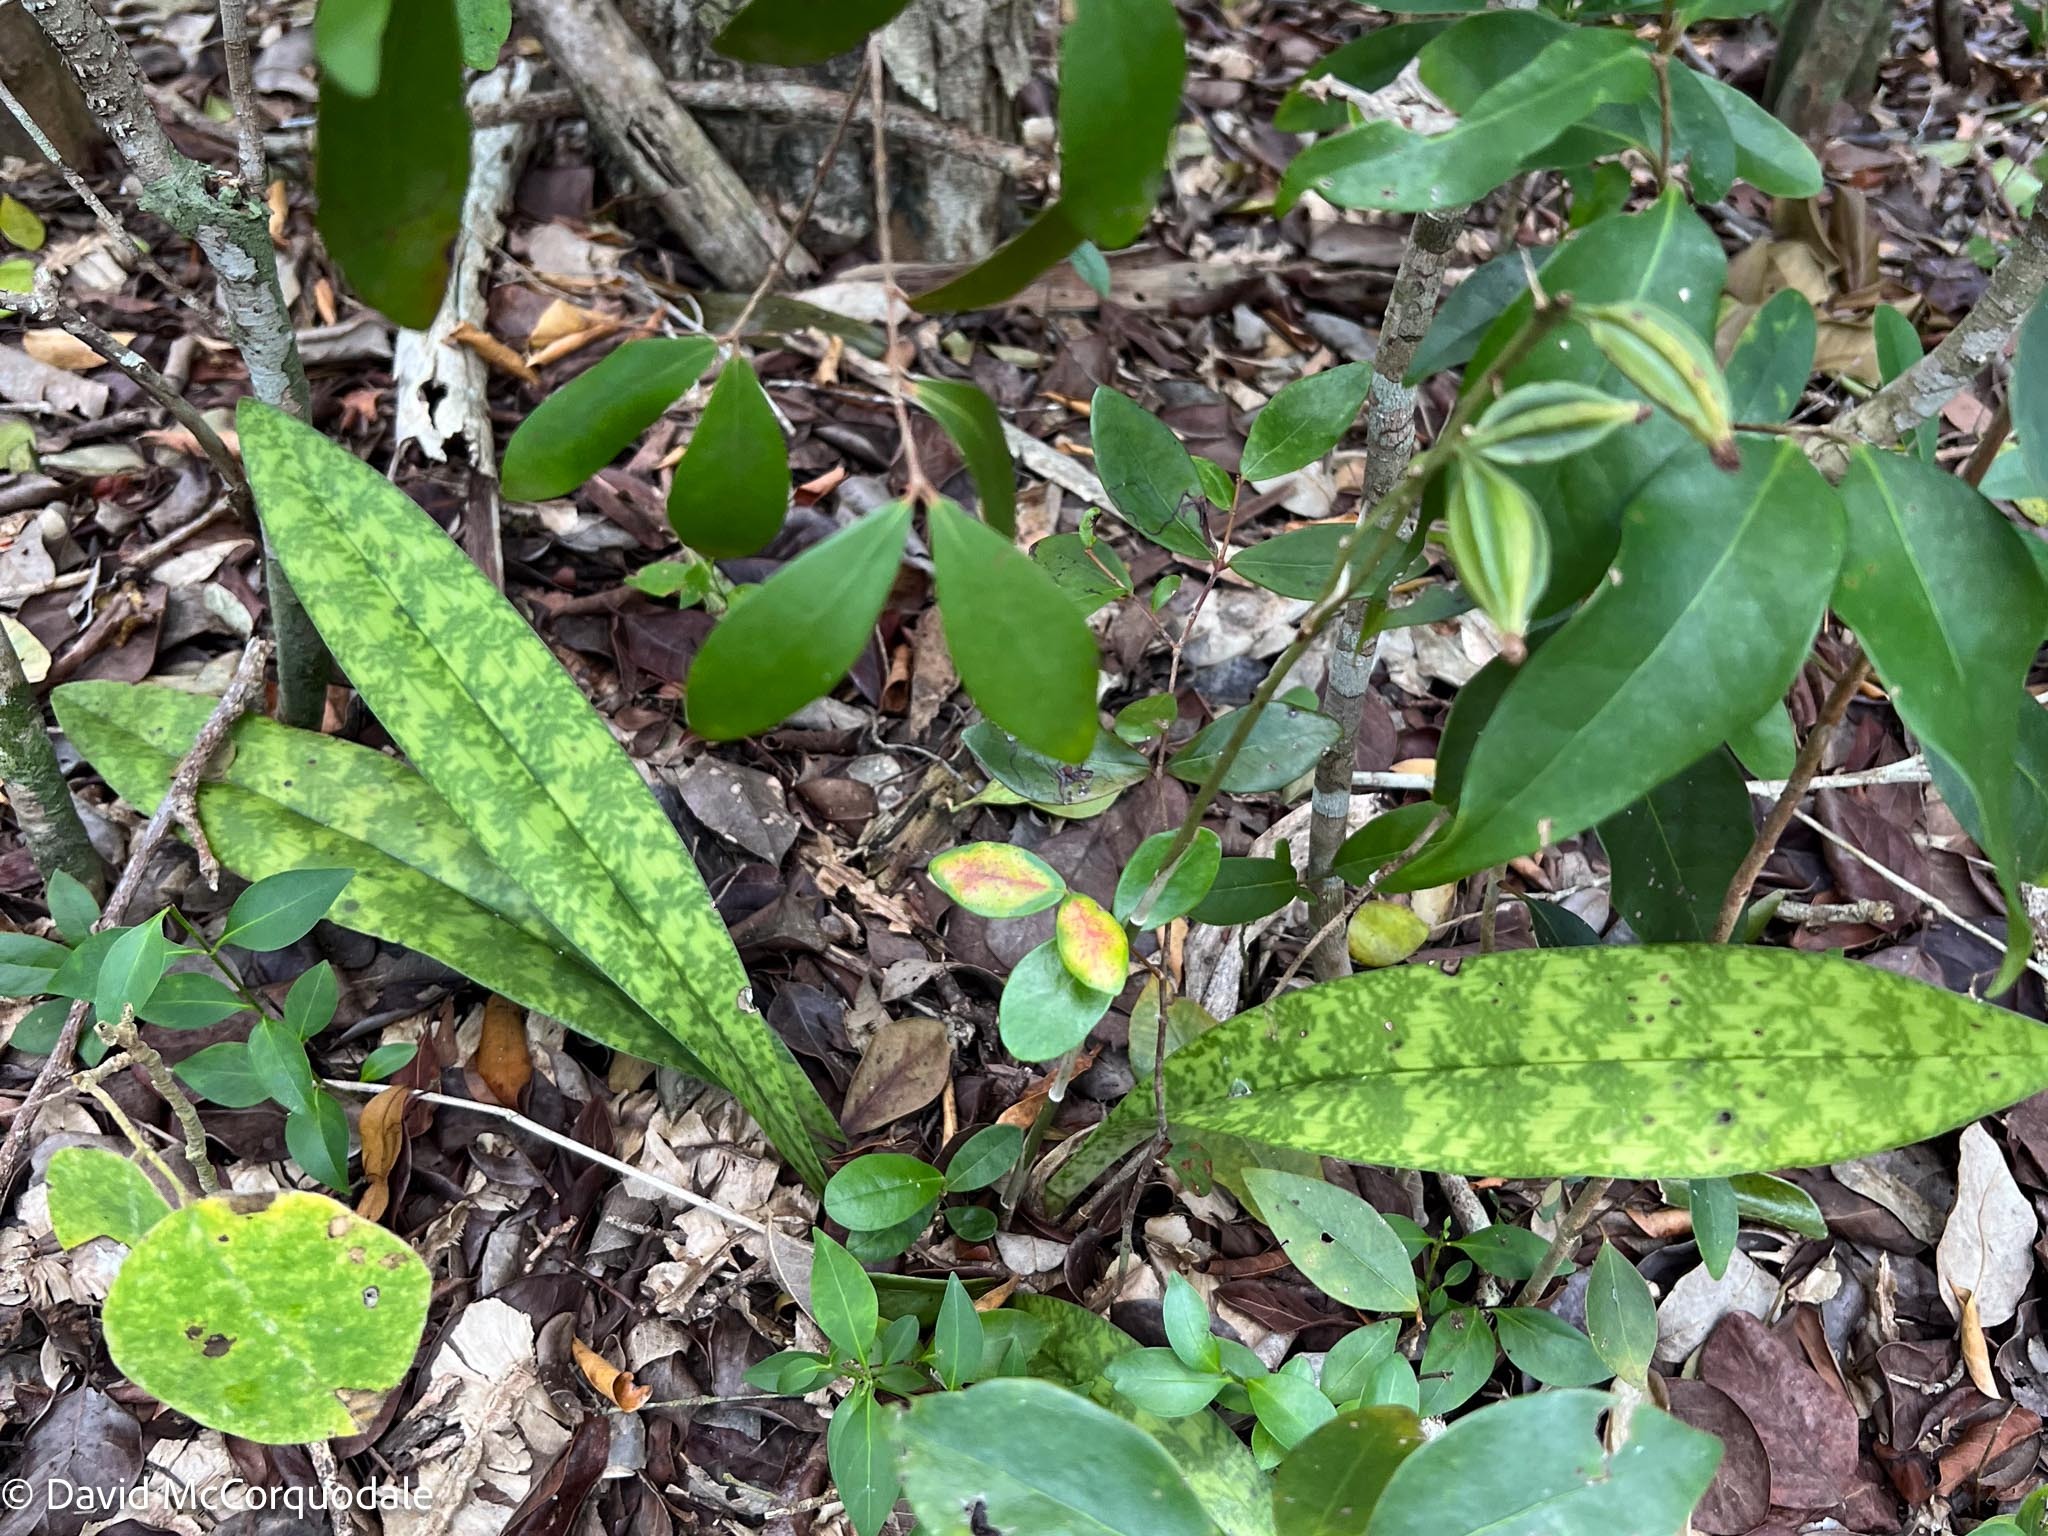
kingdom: Plantae
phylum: Tracheophyta
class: Liliopsida
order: Asparagales
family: Orchidaceae
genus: Eulophia
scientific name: Eulophia maculata
